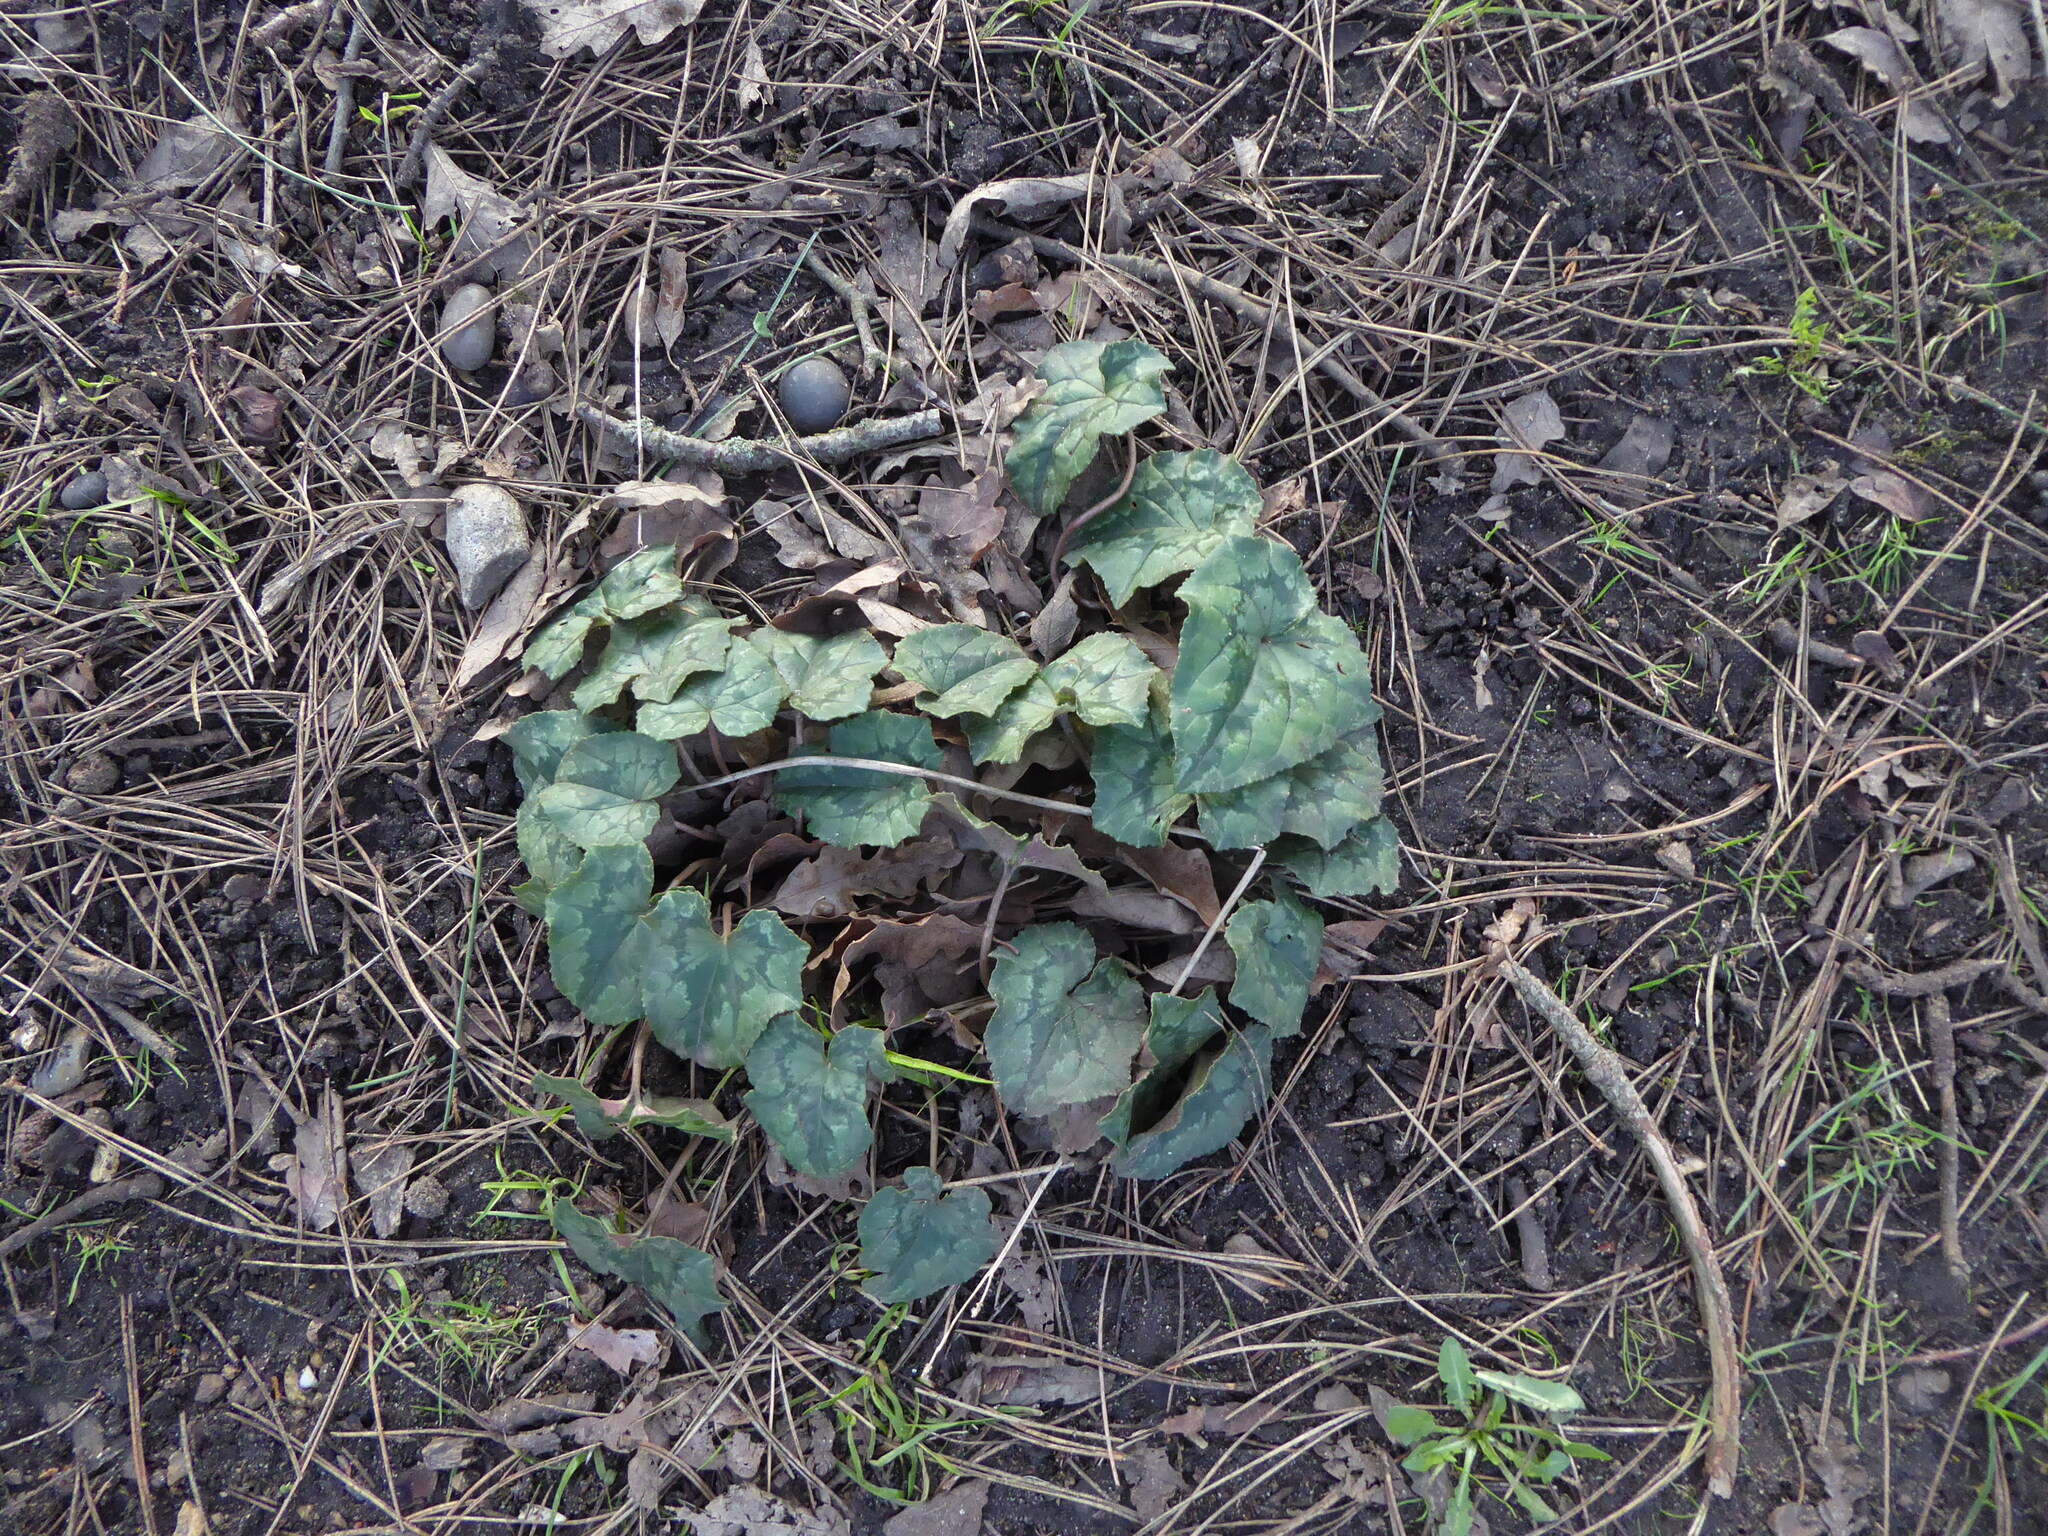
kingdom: Plantae
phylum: Tracheophyta
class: Magnoliopsida
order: Ericales
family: Primulaceae
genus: Cyclamen
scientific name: Cyclamen hederifolium
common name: Sowbread
